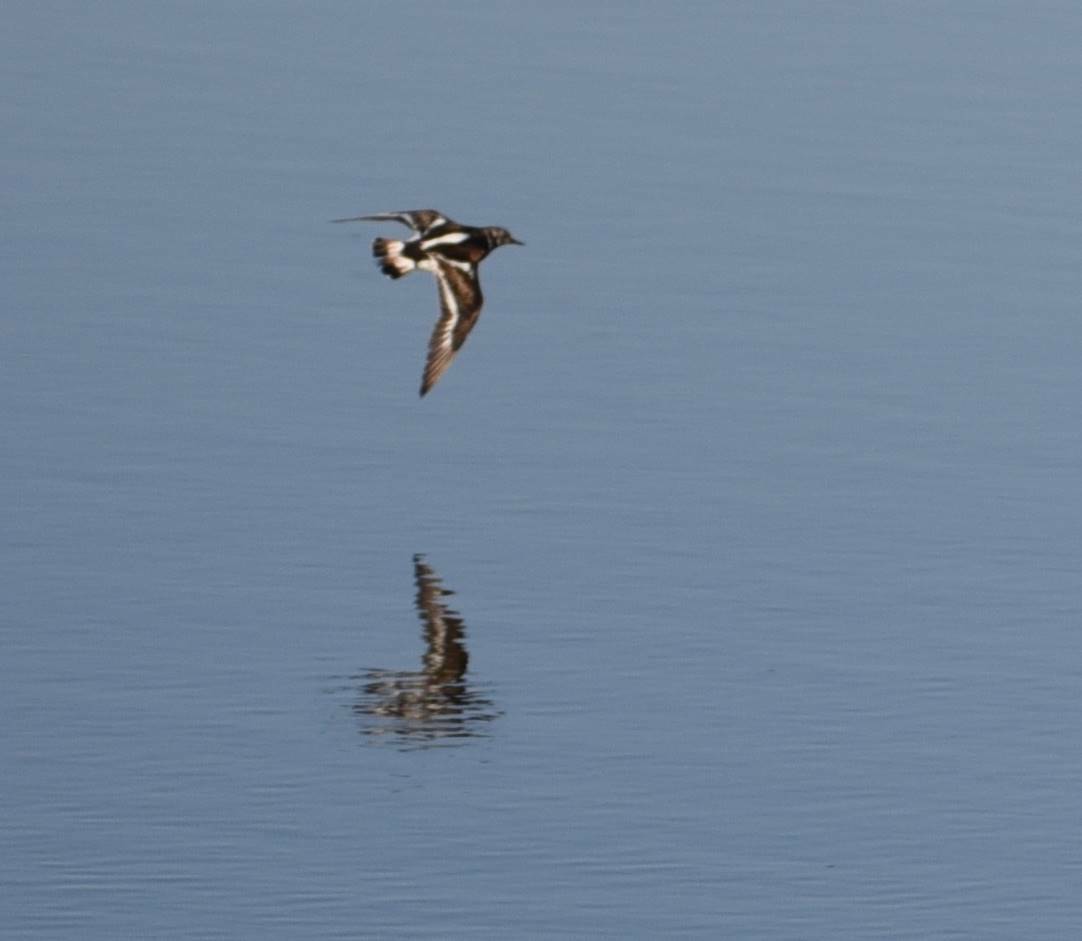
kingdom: Animalia
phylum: Chordata
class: Aves
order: Charadriiformes
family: Scolopacidae
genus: Arenaria
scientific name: Arenaria interpres
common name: Ruddy turnstone
